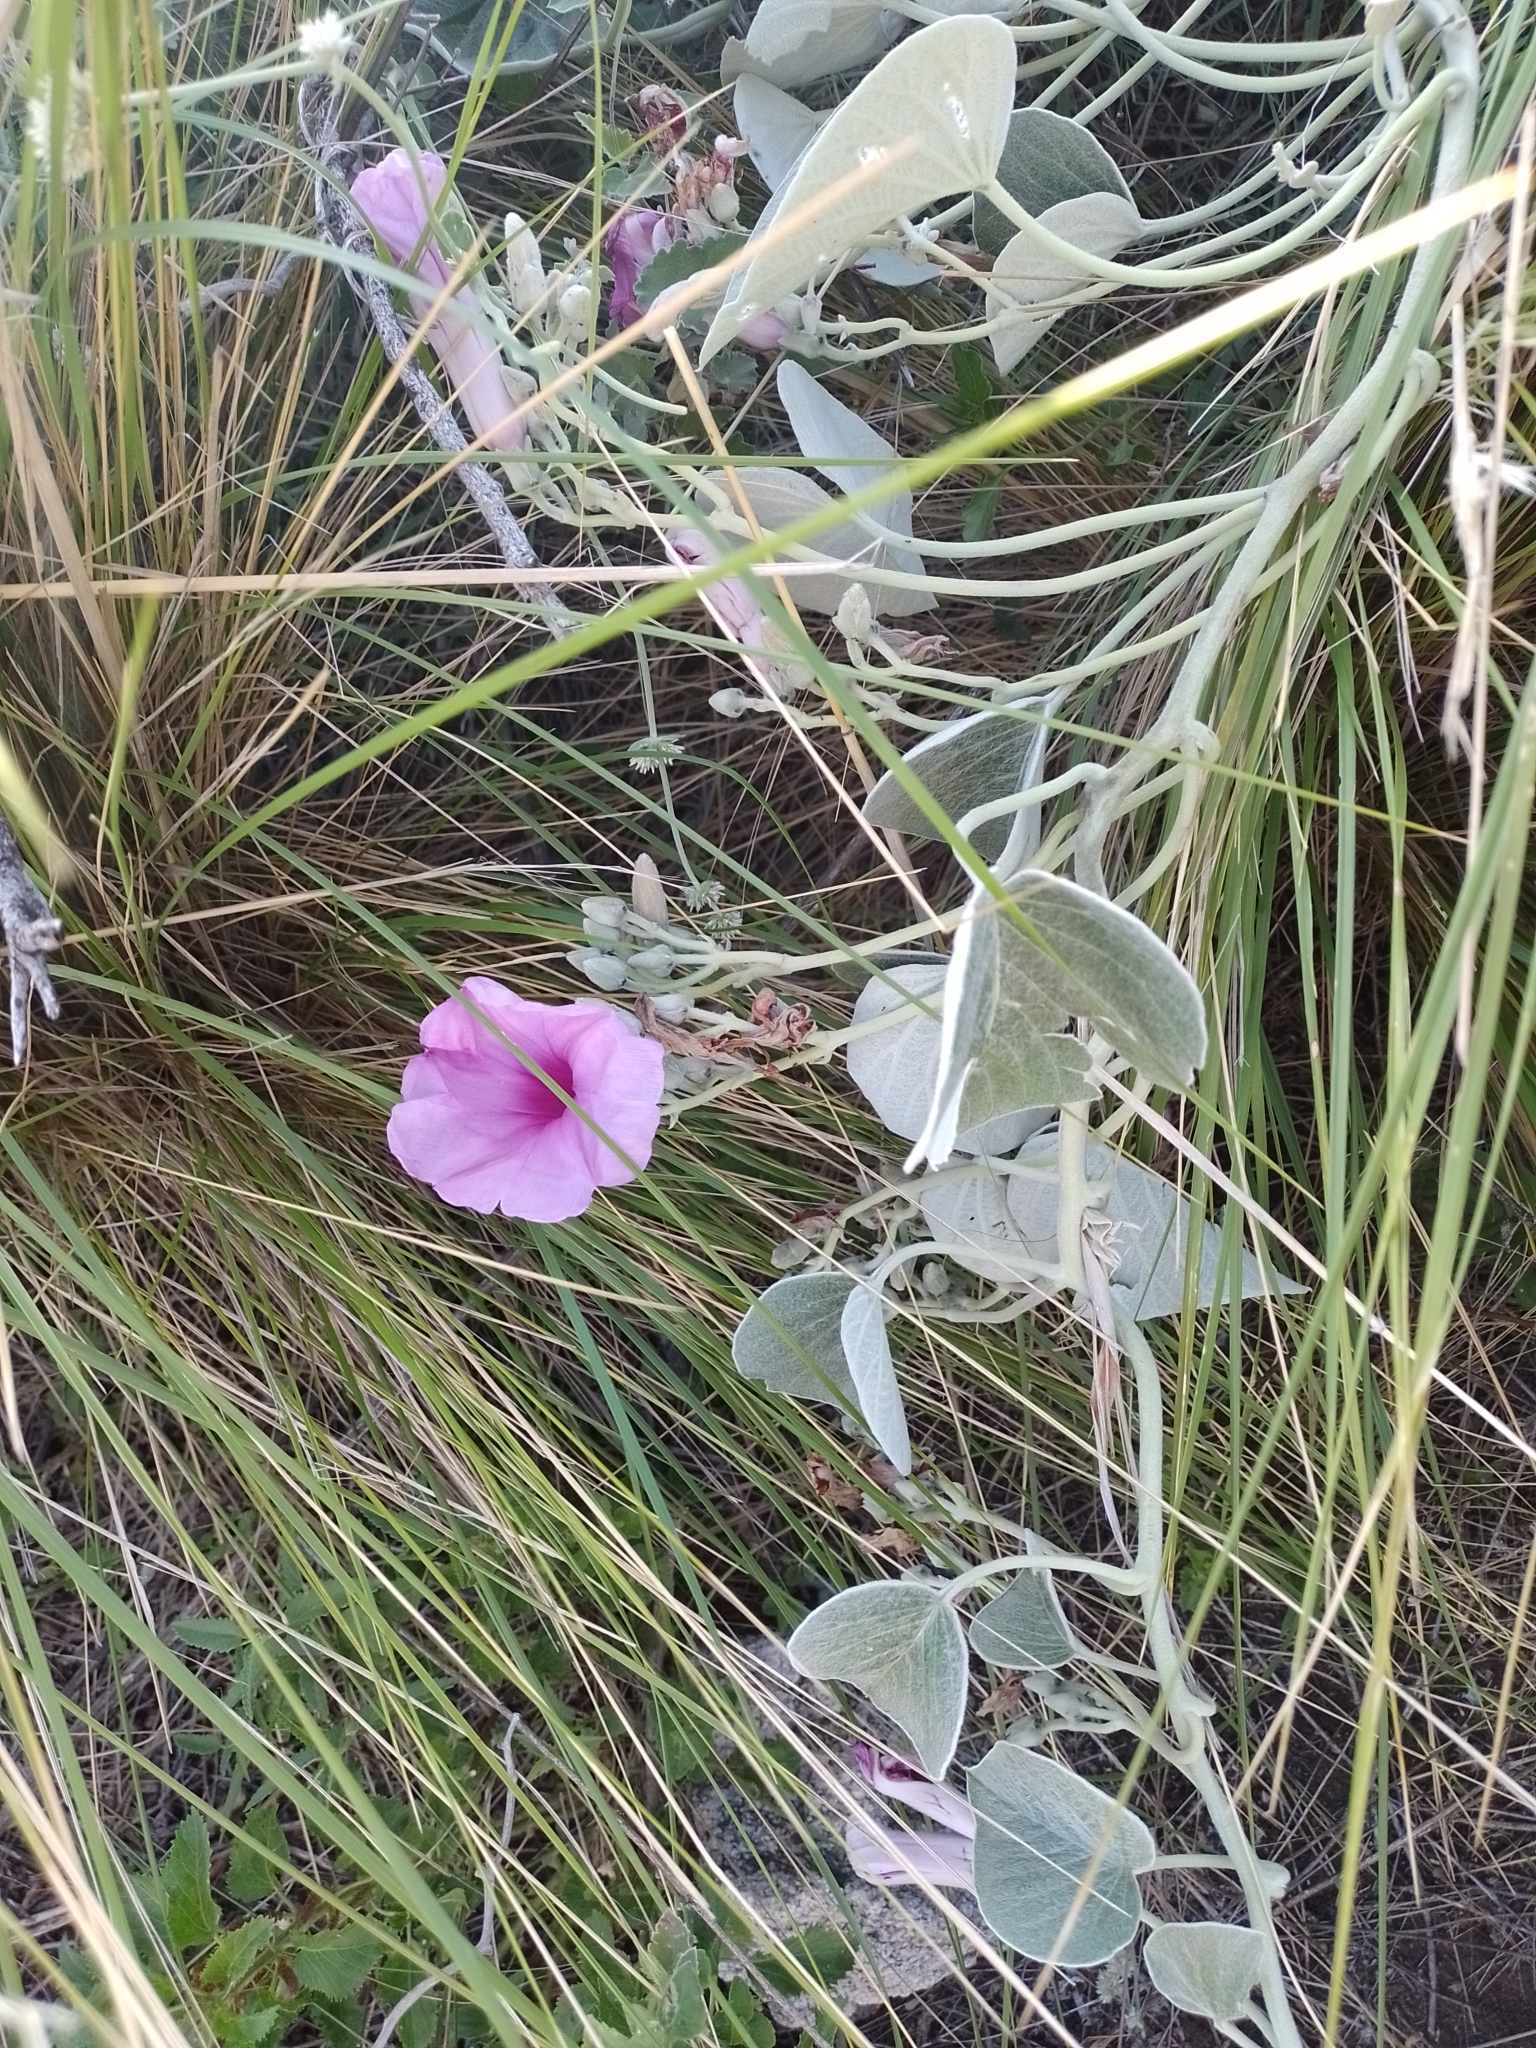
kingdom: Plantae
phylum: Tracheophyta
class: Magnoliopsida
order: Solanales
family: Convolvulaceae
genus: Ipomoea
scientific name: Ipomoea hieronymi
